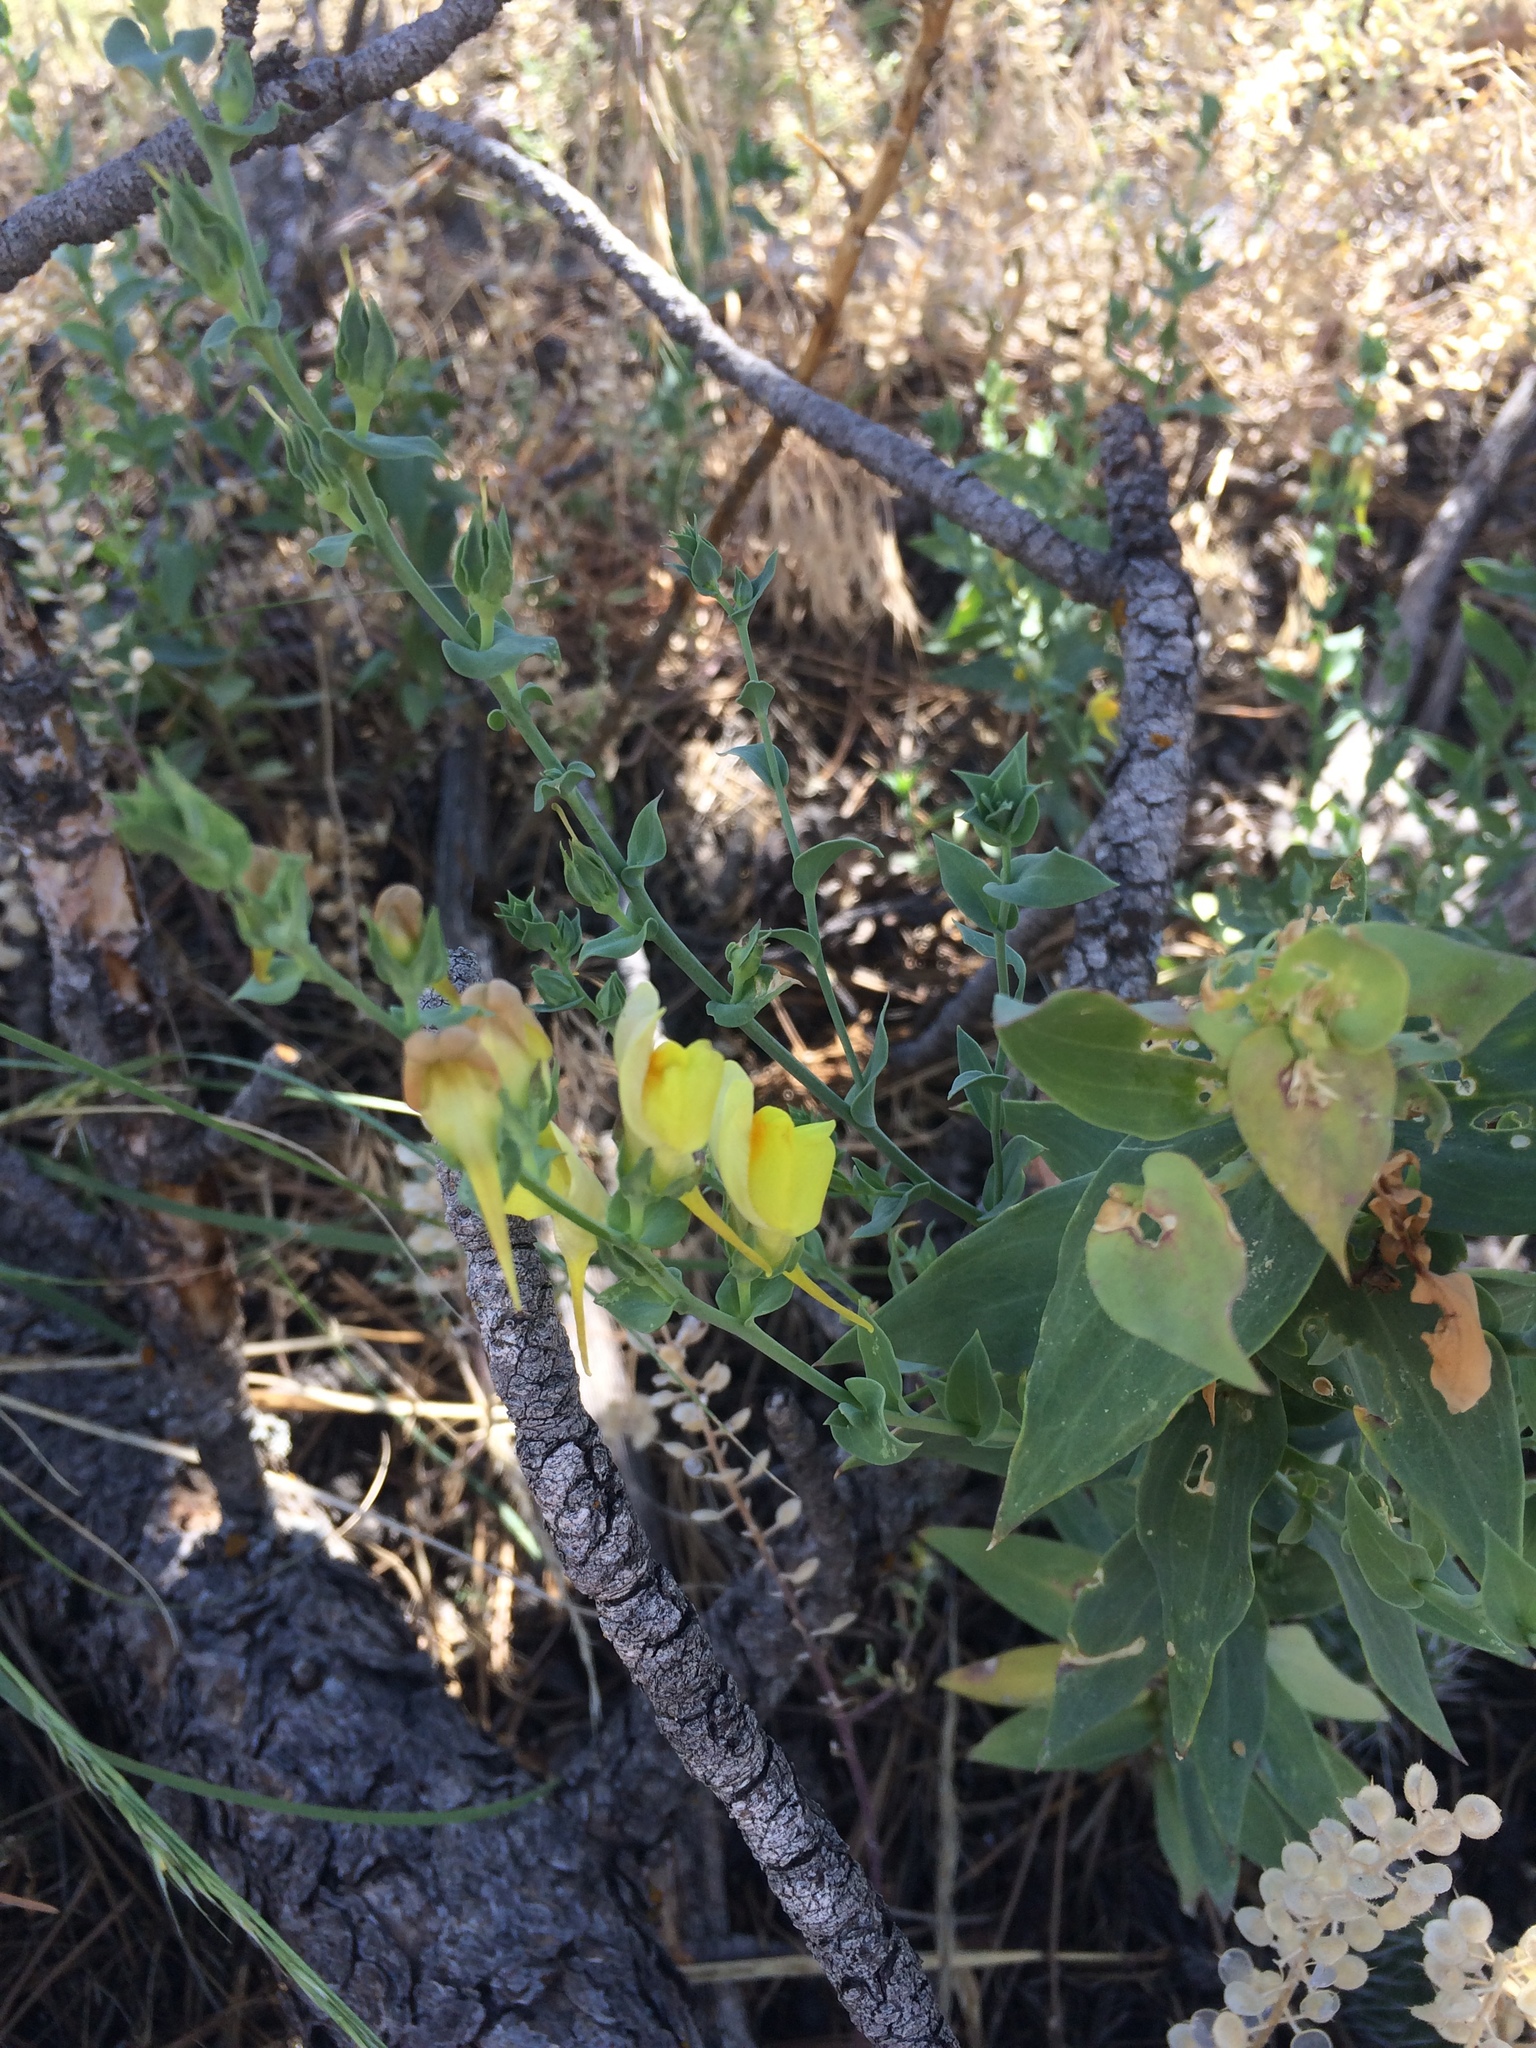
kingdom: Plantae
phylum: Tracheophyta
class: Magnoliopsida
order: Lamiales
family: Plantaginaceae
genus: Linaria
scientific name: Linaria dalmatica
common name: Dalmatian toadflax
